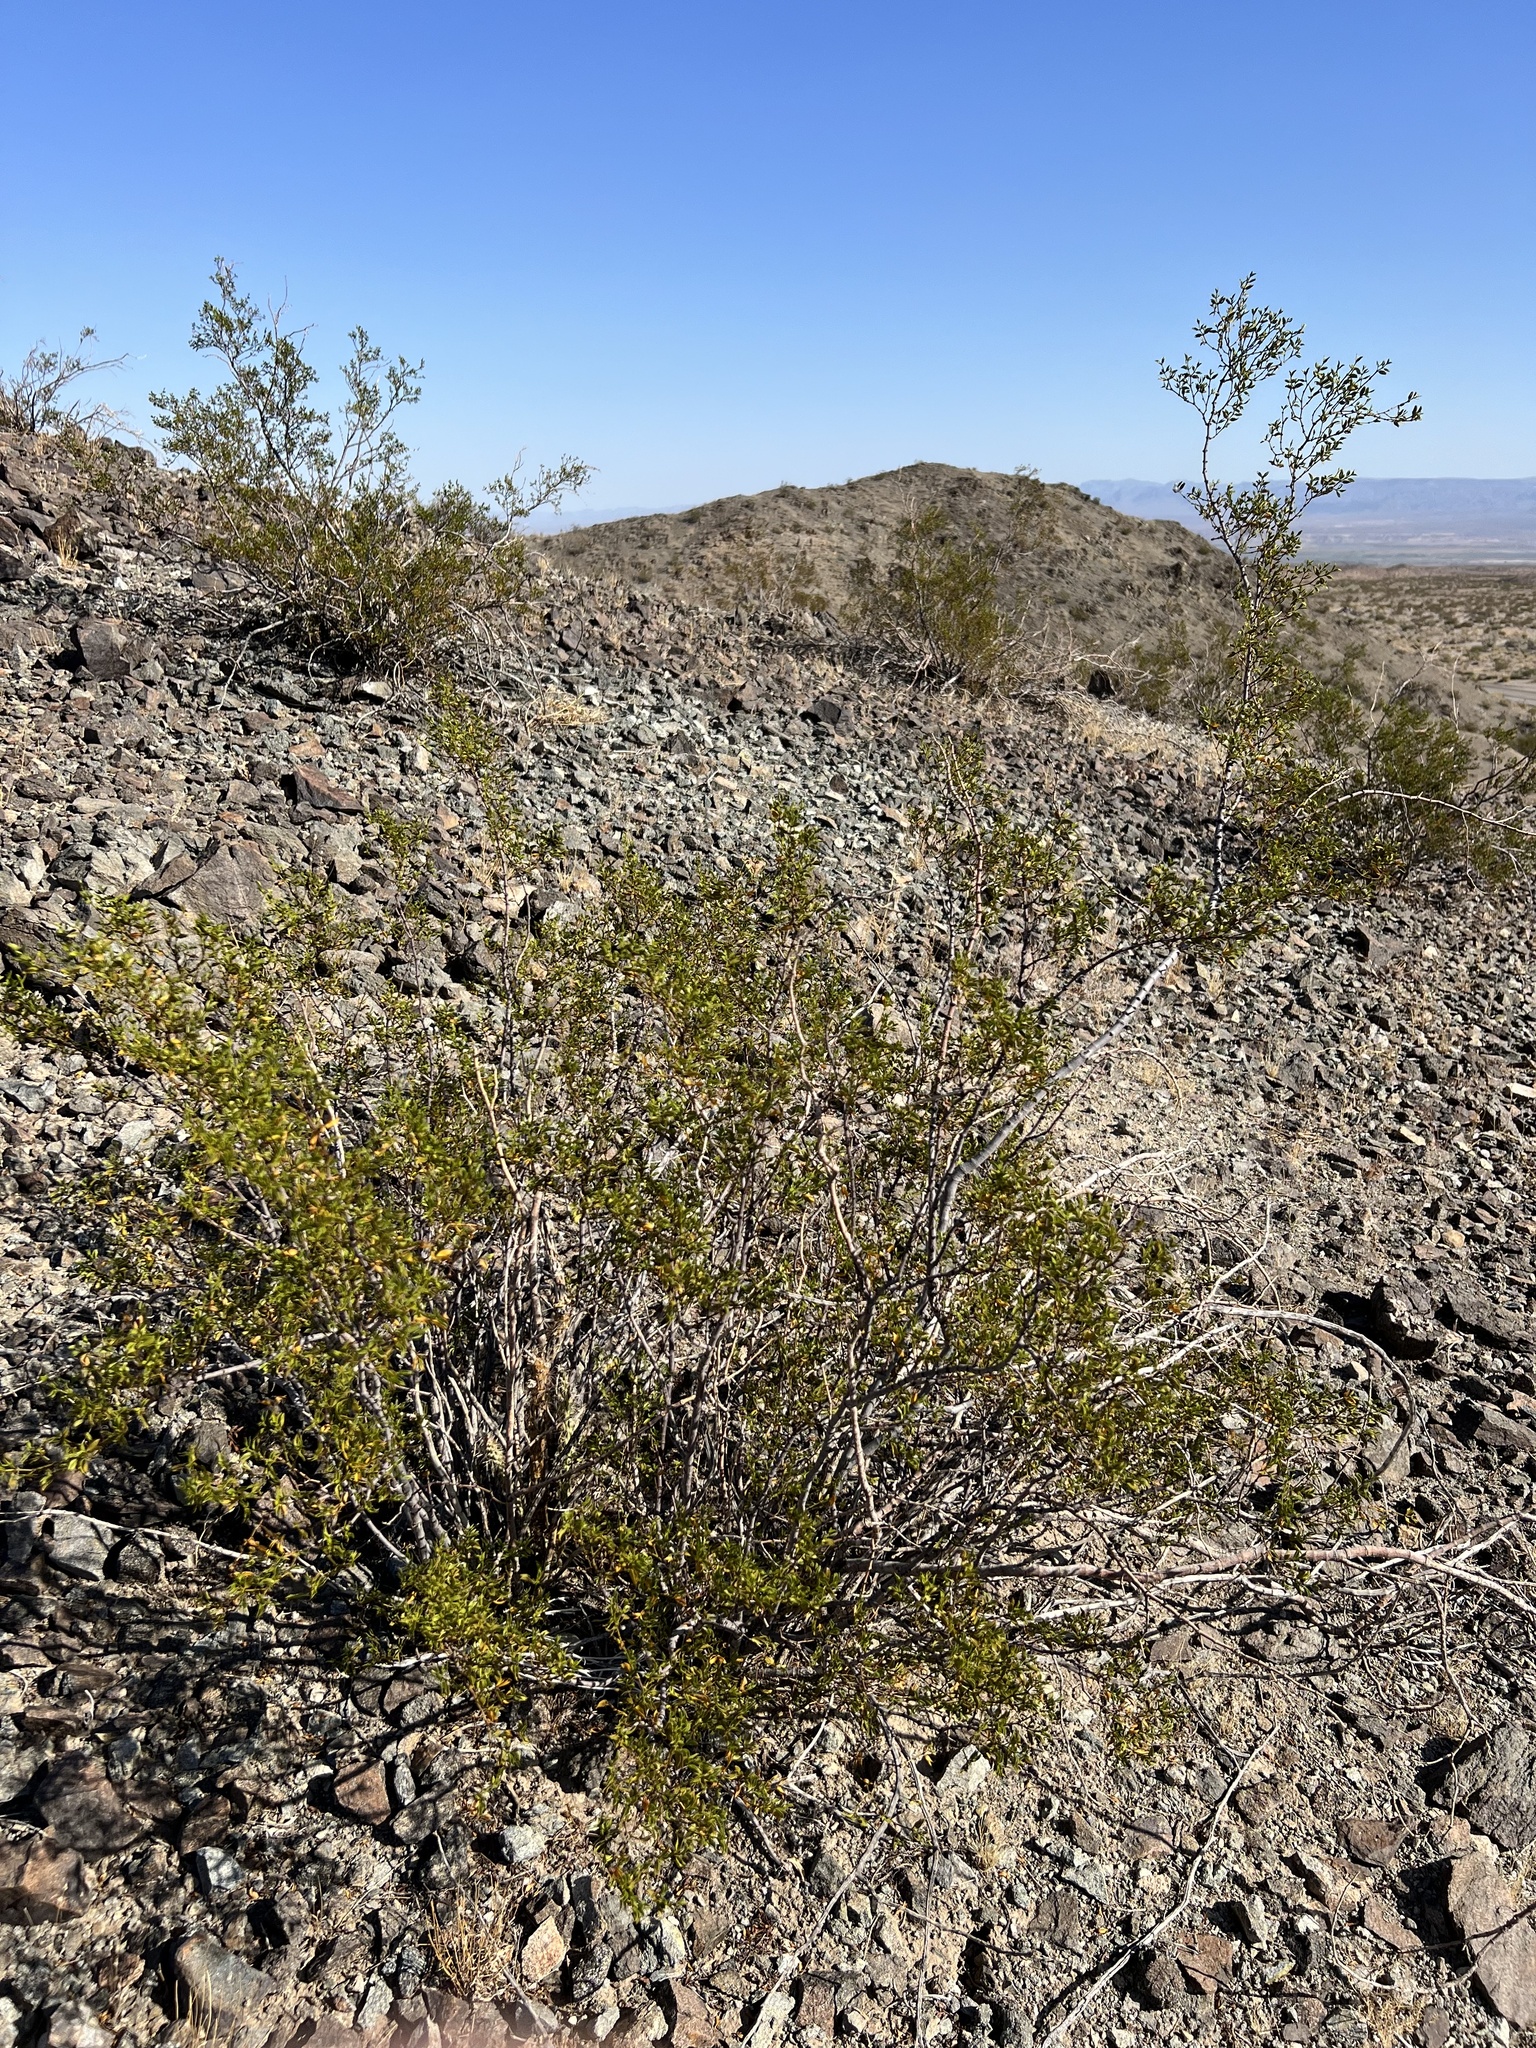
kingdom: Plantae
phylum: Tracheophyta
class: Magnoliopsida
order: Zygophyllales
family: Zygophyllaceae
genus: Larrea
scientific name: Larrea tridentata
